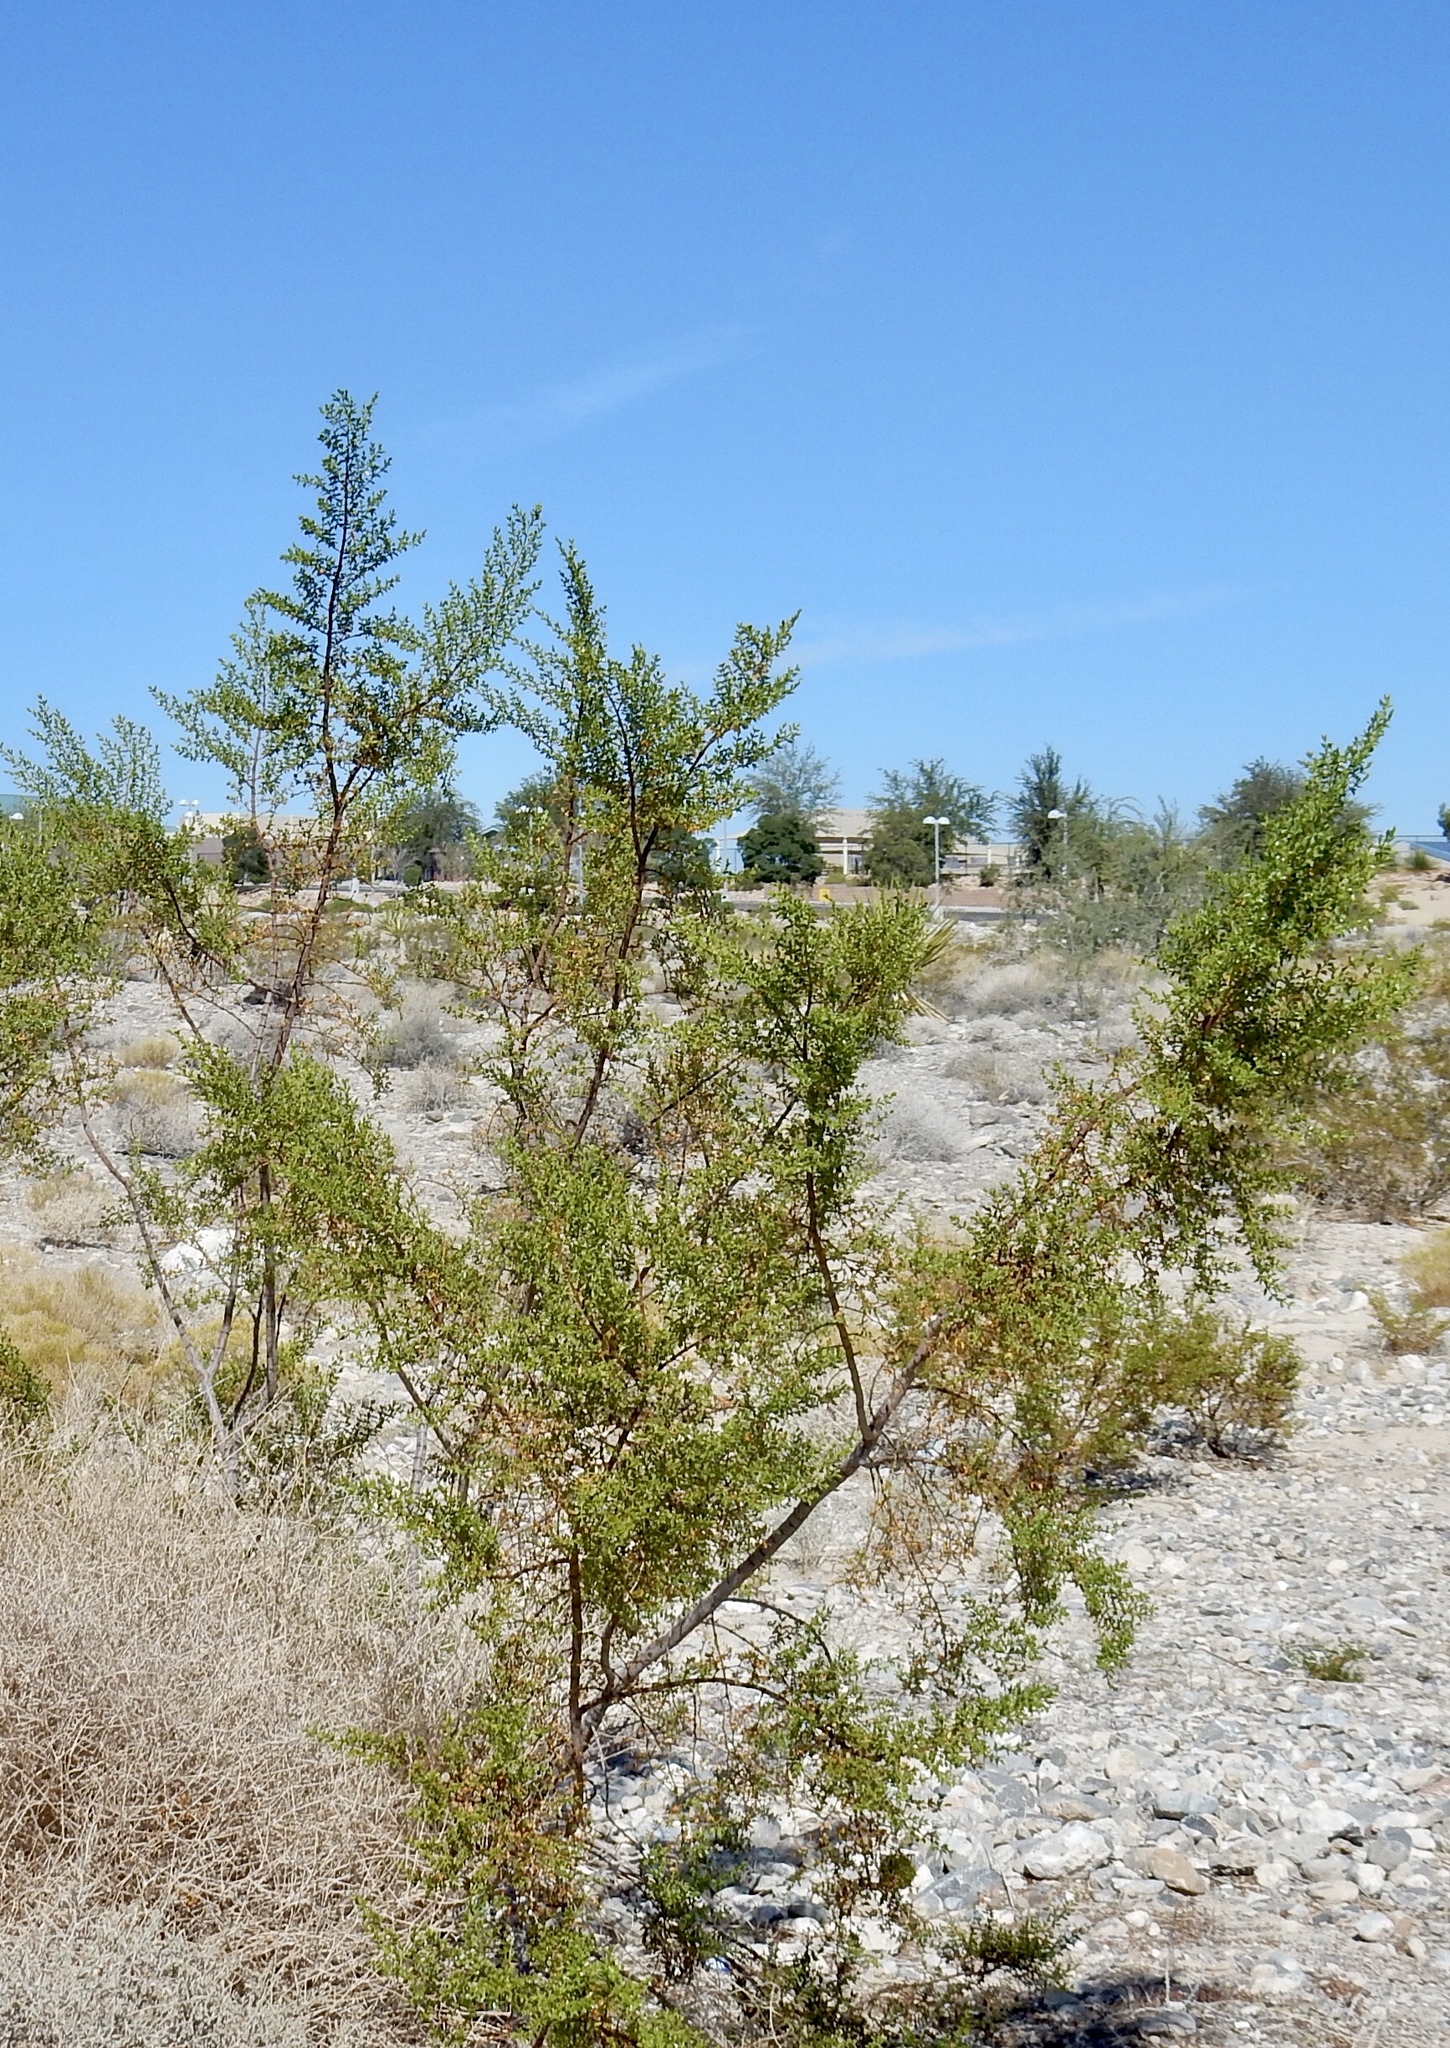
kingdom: Plantae
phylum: Tracheophyta
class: Magnoliopsida
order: Zygophyllales
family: Zygophyllaceae
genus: Larrea
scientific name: Larrea tridentata
